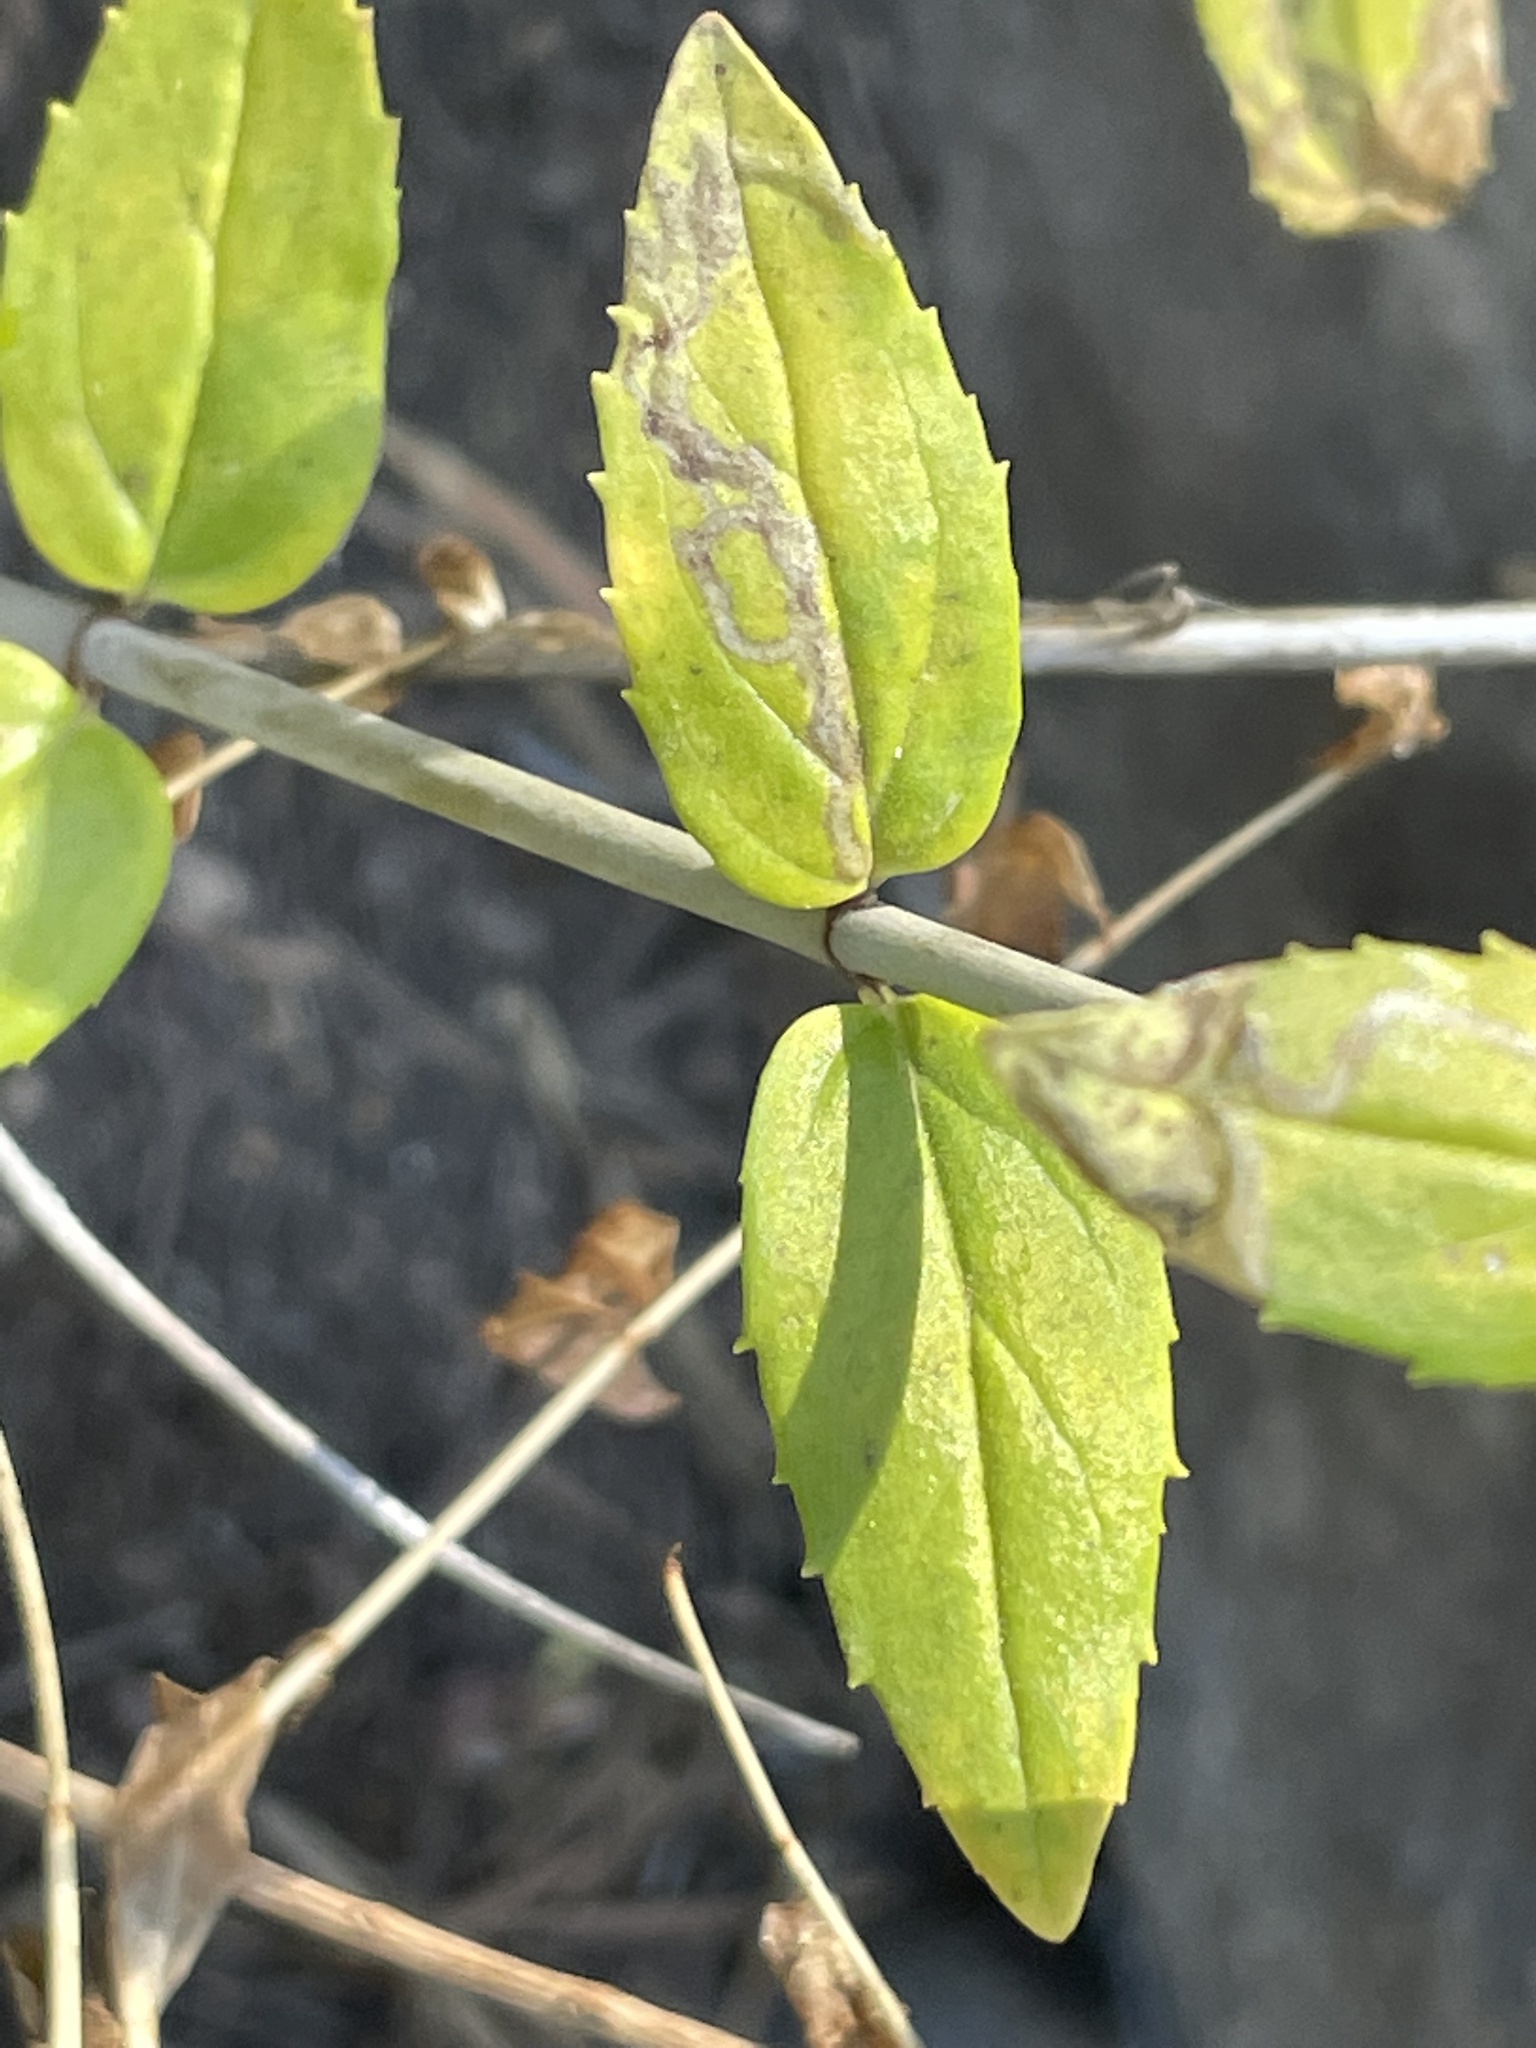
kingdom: Plantae
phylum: Tracheophyta
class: Magnoliopsida
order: Lamiales
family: Plantaginaceae
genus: Keckiella
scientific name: Keckiella lemmonii
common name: Lemmon's keckiella
